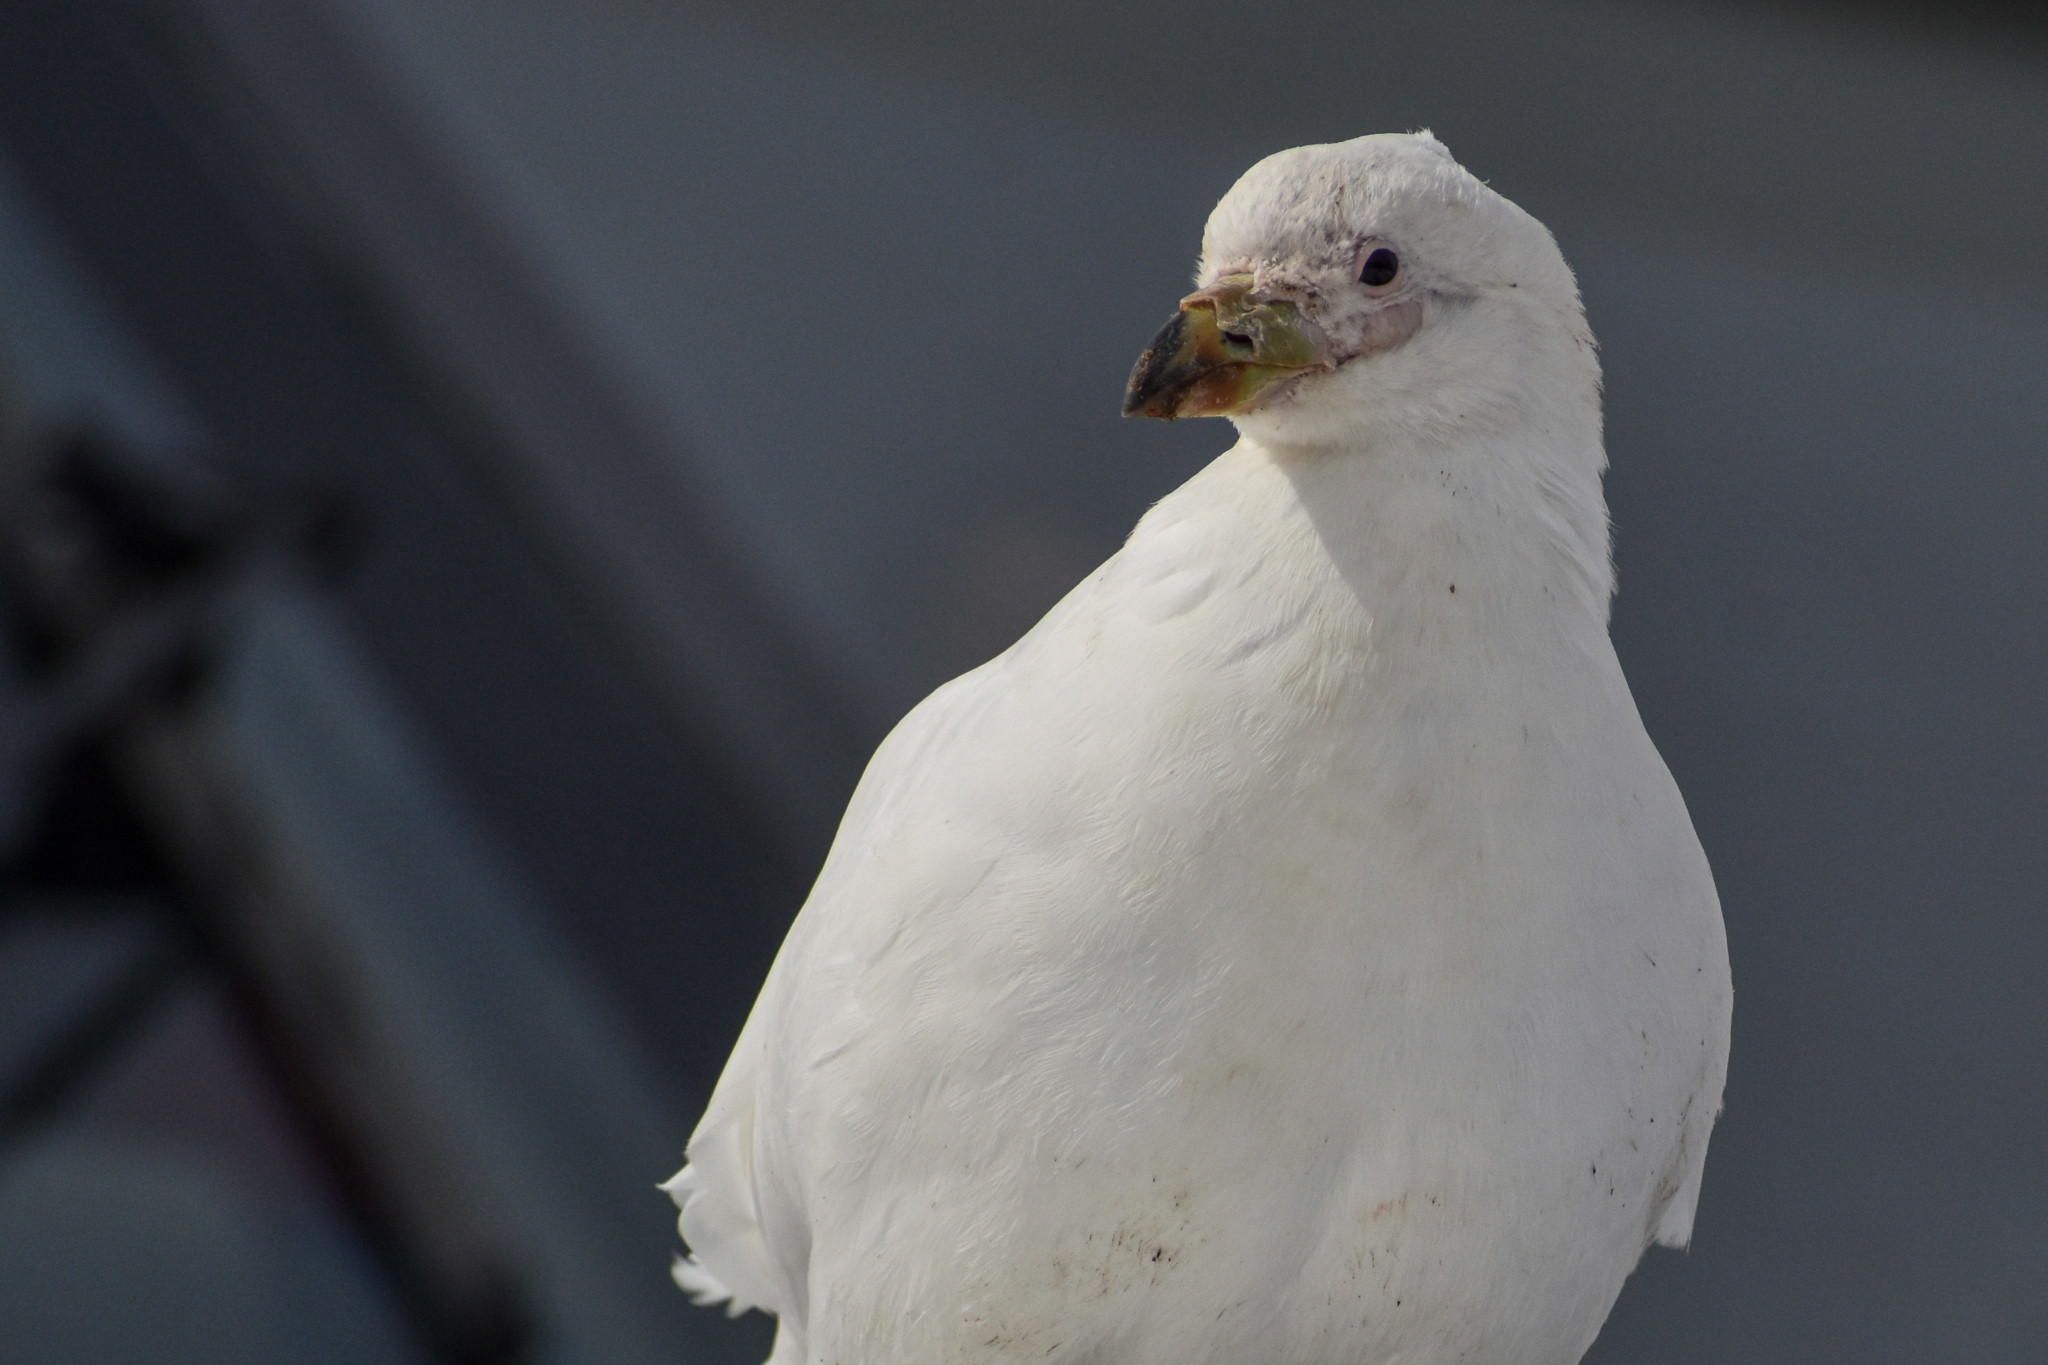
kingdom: Animalia
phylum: Chordata
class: Aves
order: Charadriiformes
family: Chionidae
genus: Chionis
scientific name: Chionis albus
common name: Snowy sheathbill
